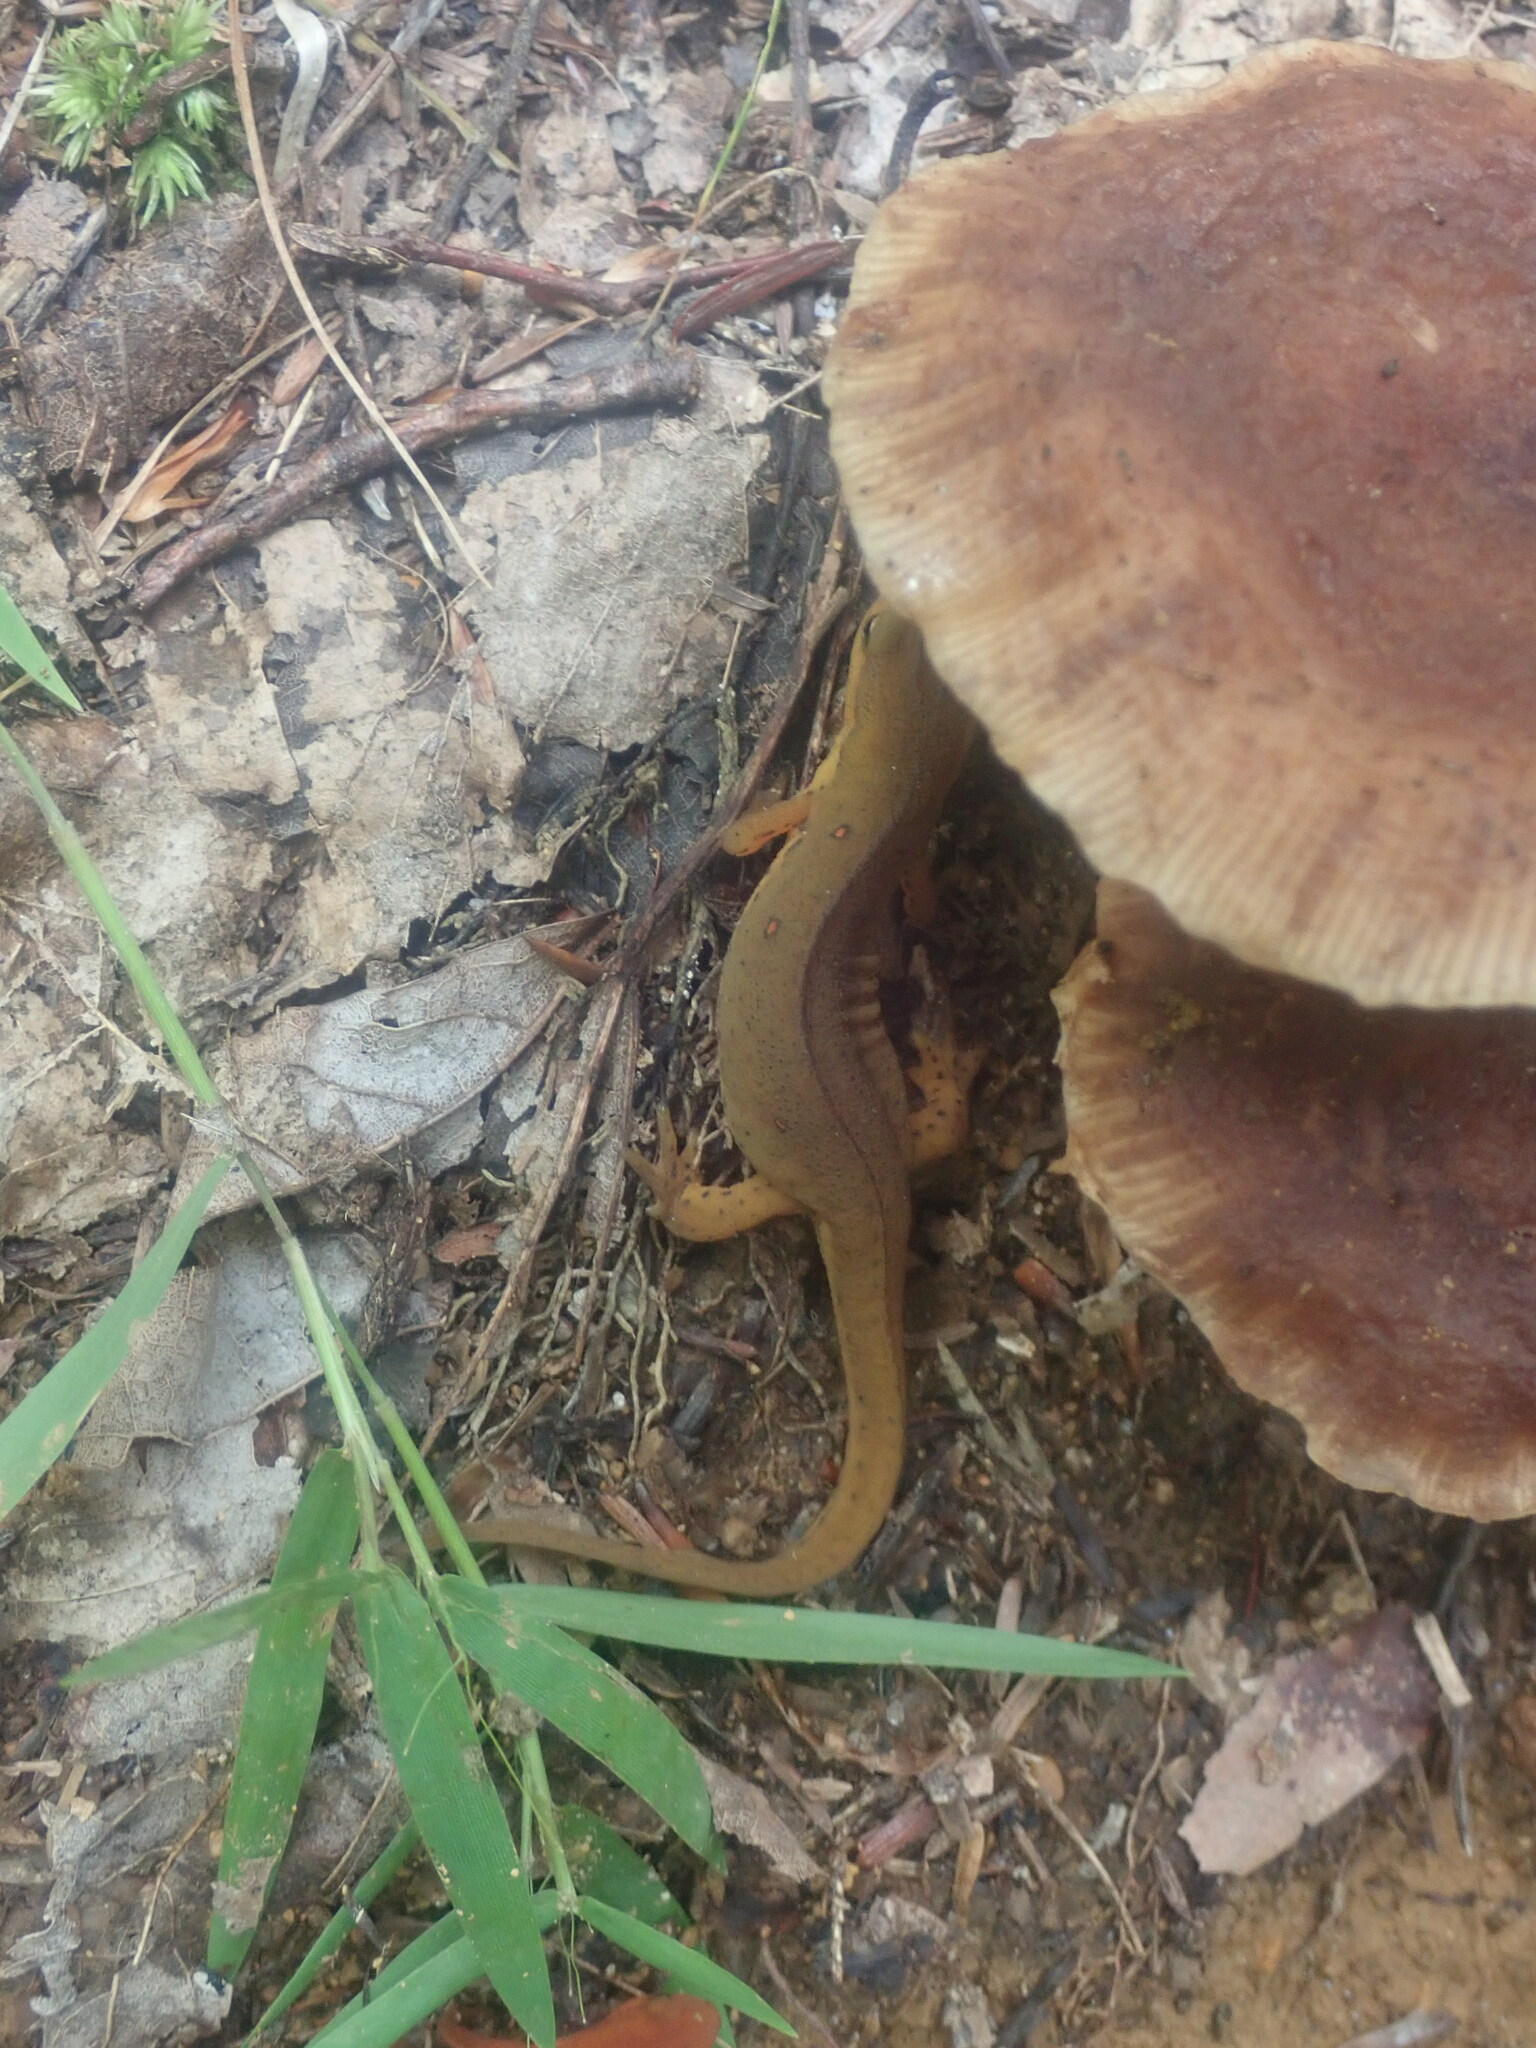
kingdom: Animalia
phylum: Chordata
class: Amphibia
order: Caudata
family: Salamandridae
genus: Notophthalmus
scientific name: Notophthalmus viridescens
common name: Eastern newt
